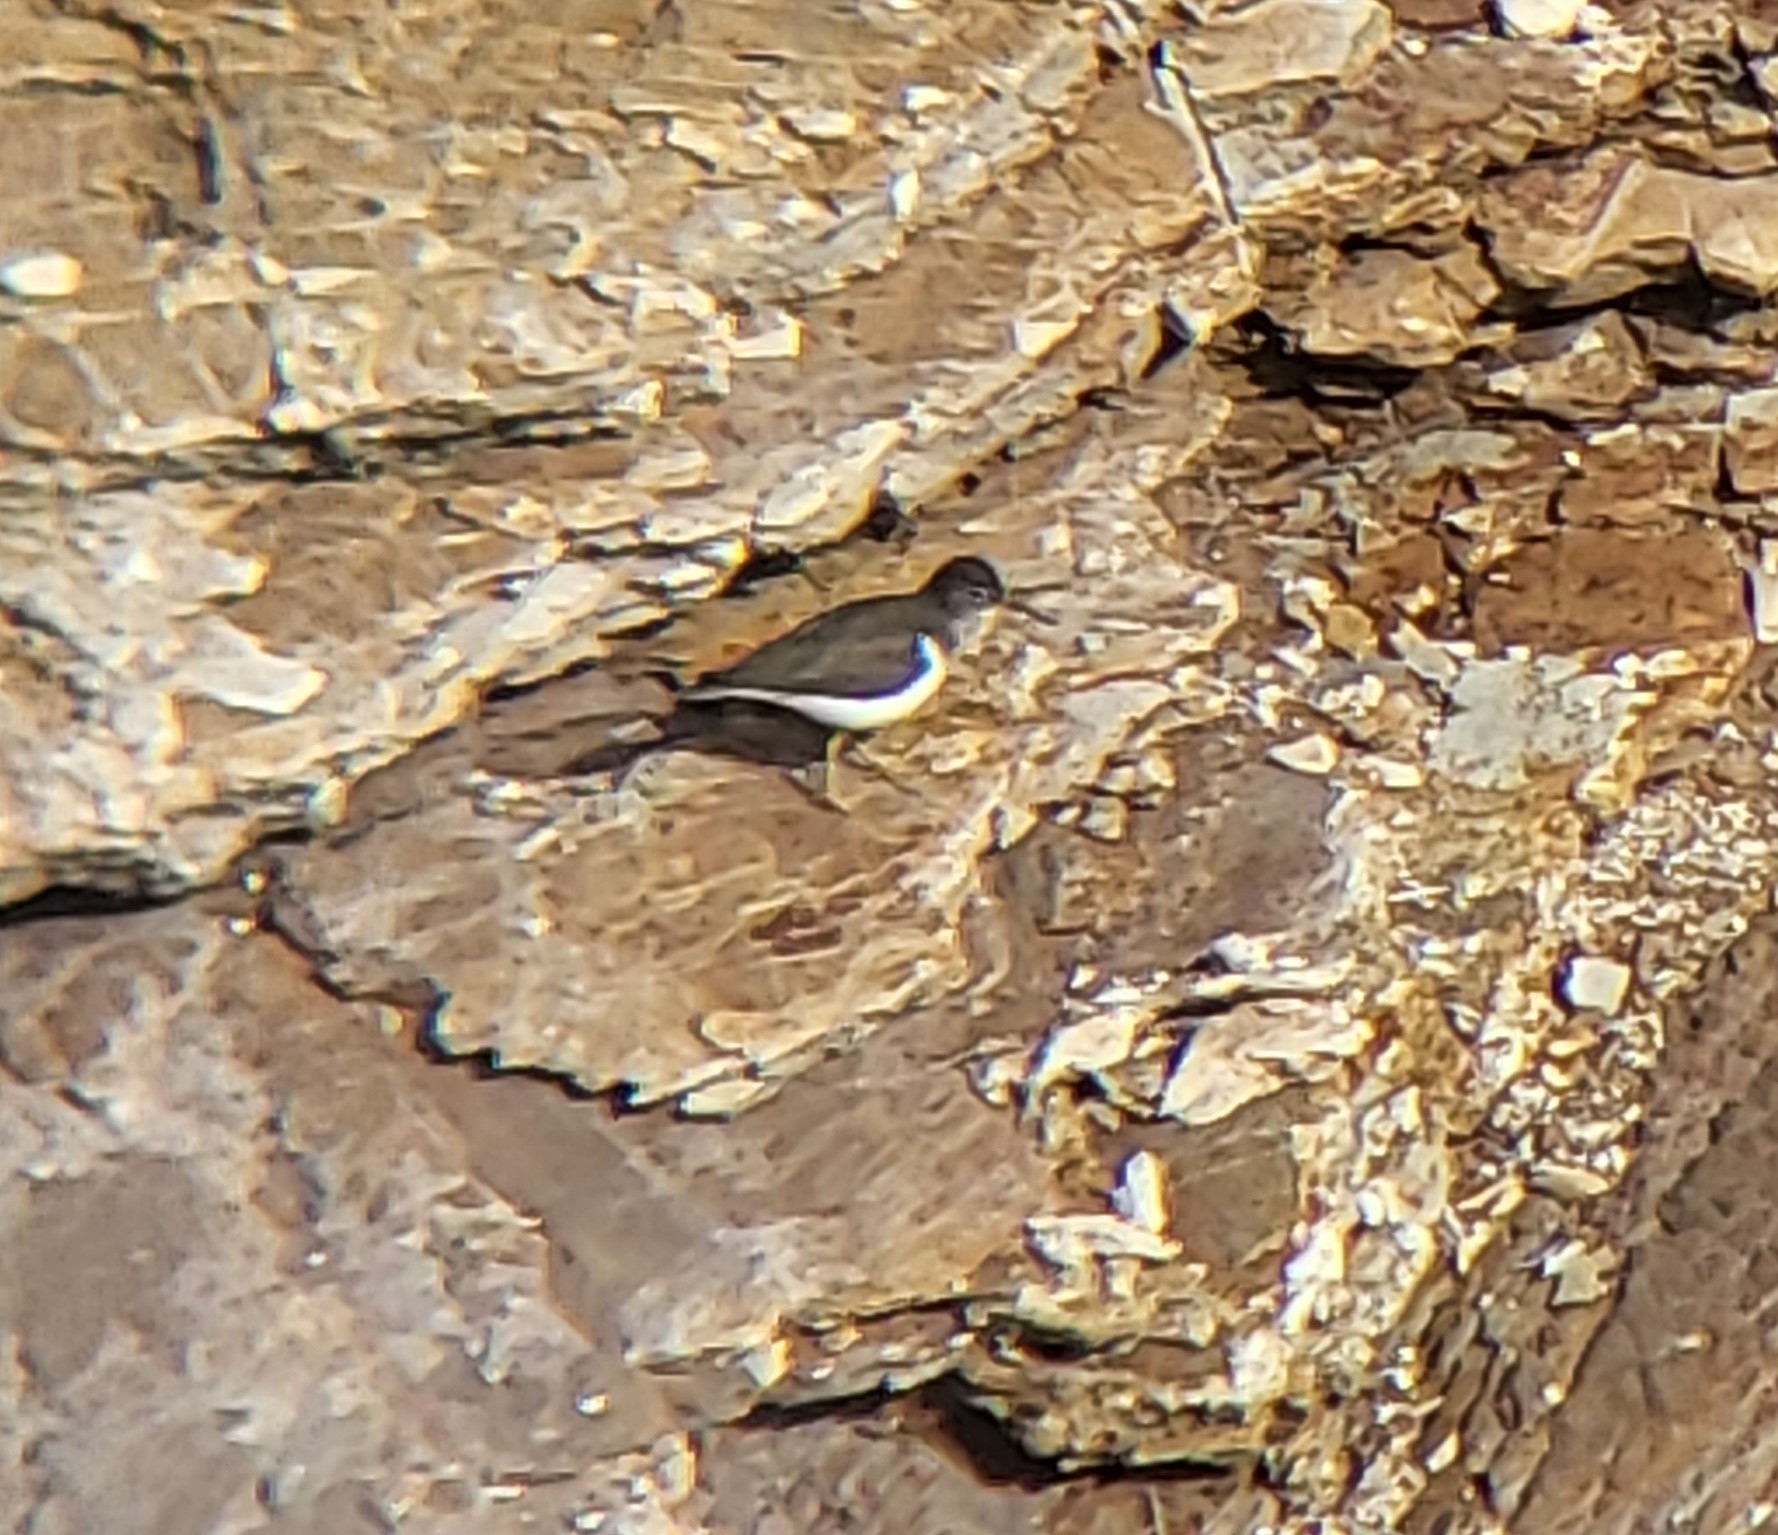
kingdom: Animalia
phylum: Chordata
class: Aves
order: Charadriiformes
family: Scolopacidae
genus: Actitis
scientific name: Actitis macularius
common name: Spotted sandpiper
